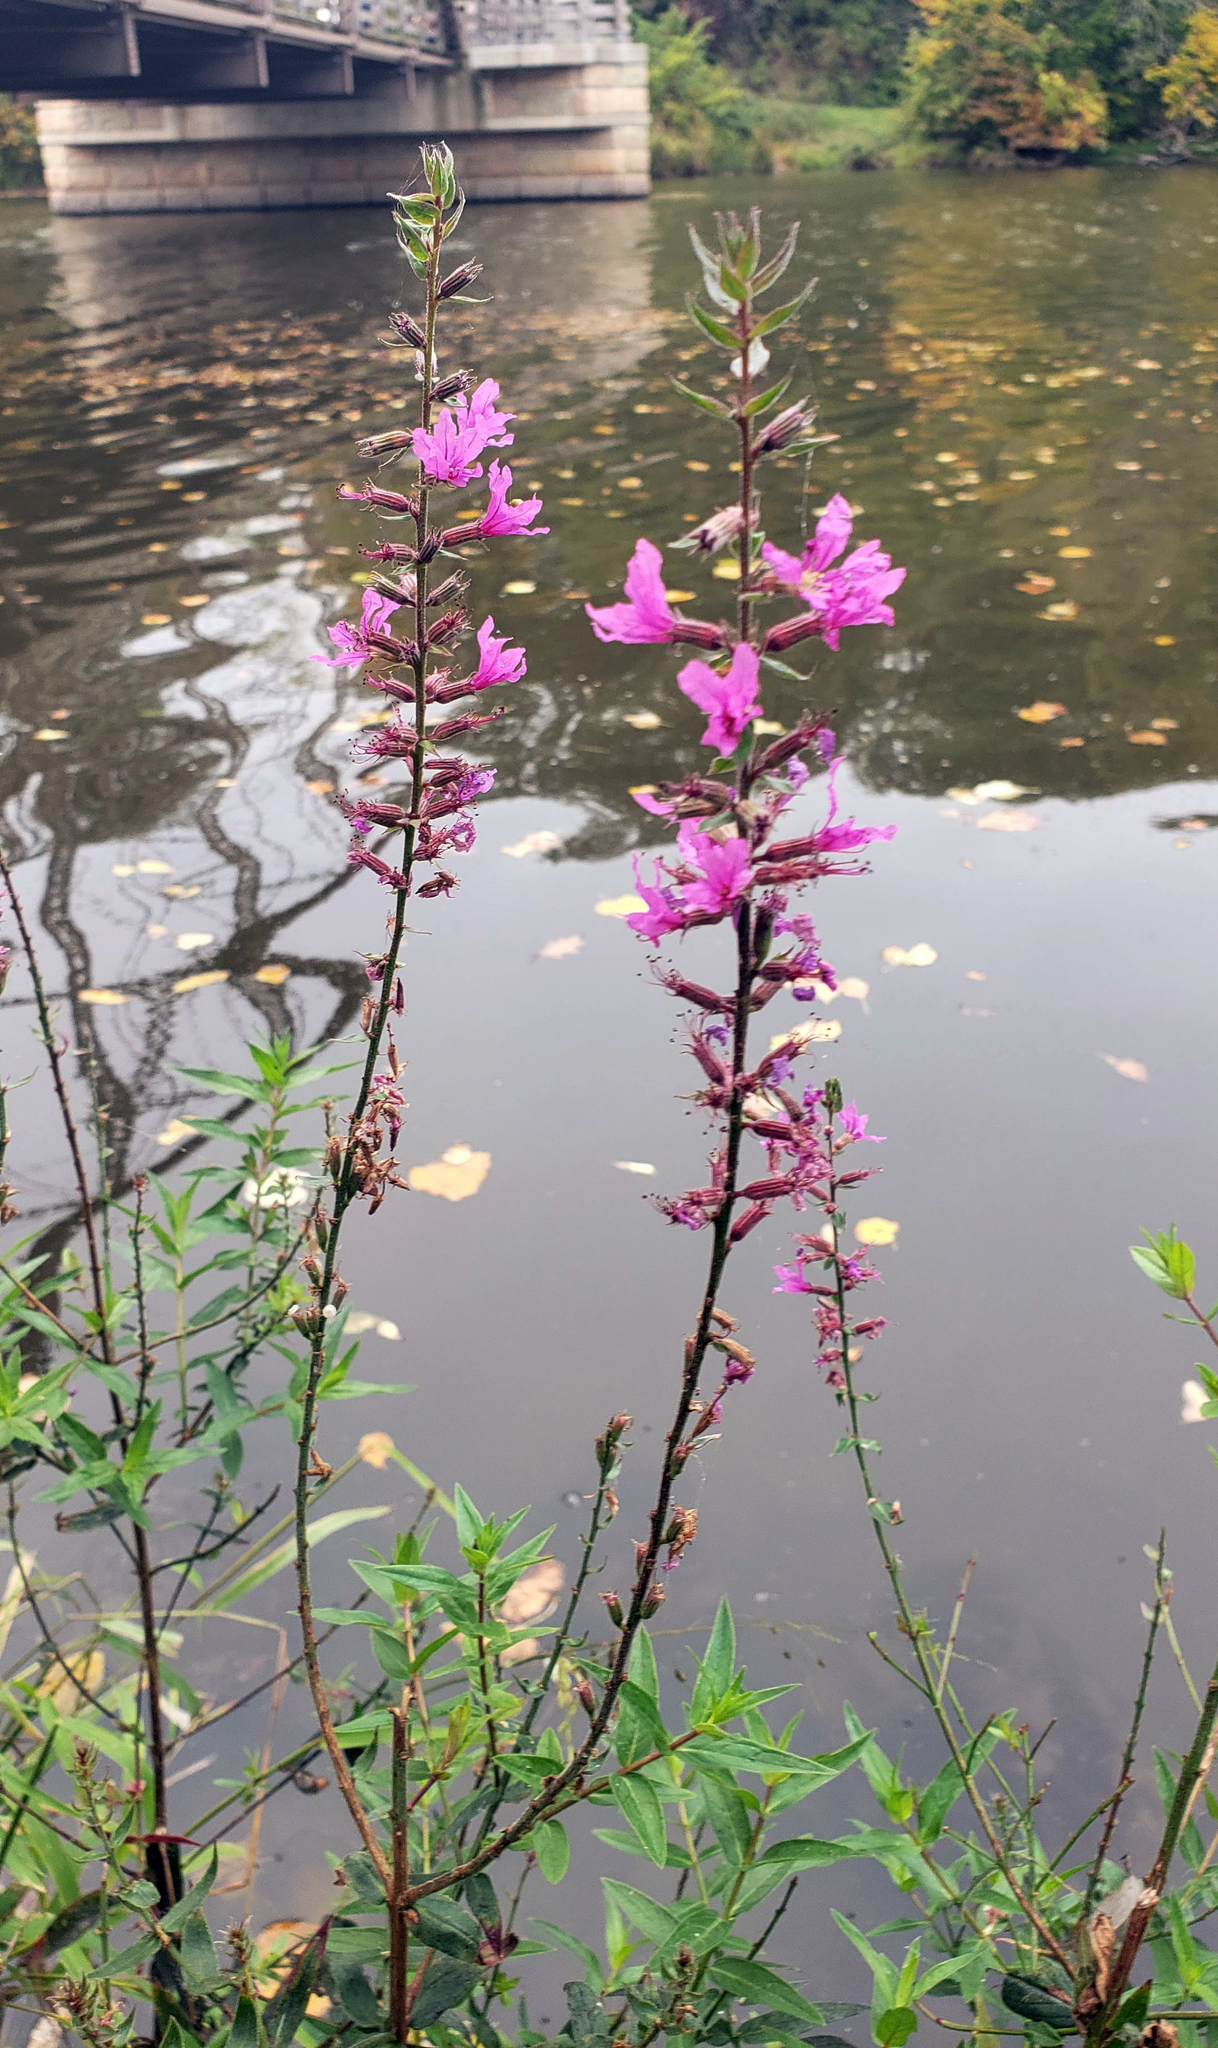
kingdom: Plantae
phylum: Tracheophyta
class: Magnoliopsida
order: Myrtales
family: Lythraceae
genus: Lythrum
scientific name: Lythrum salicaria
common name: Purple loosestrife
